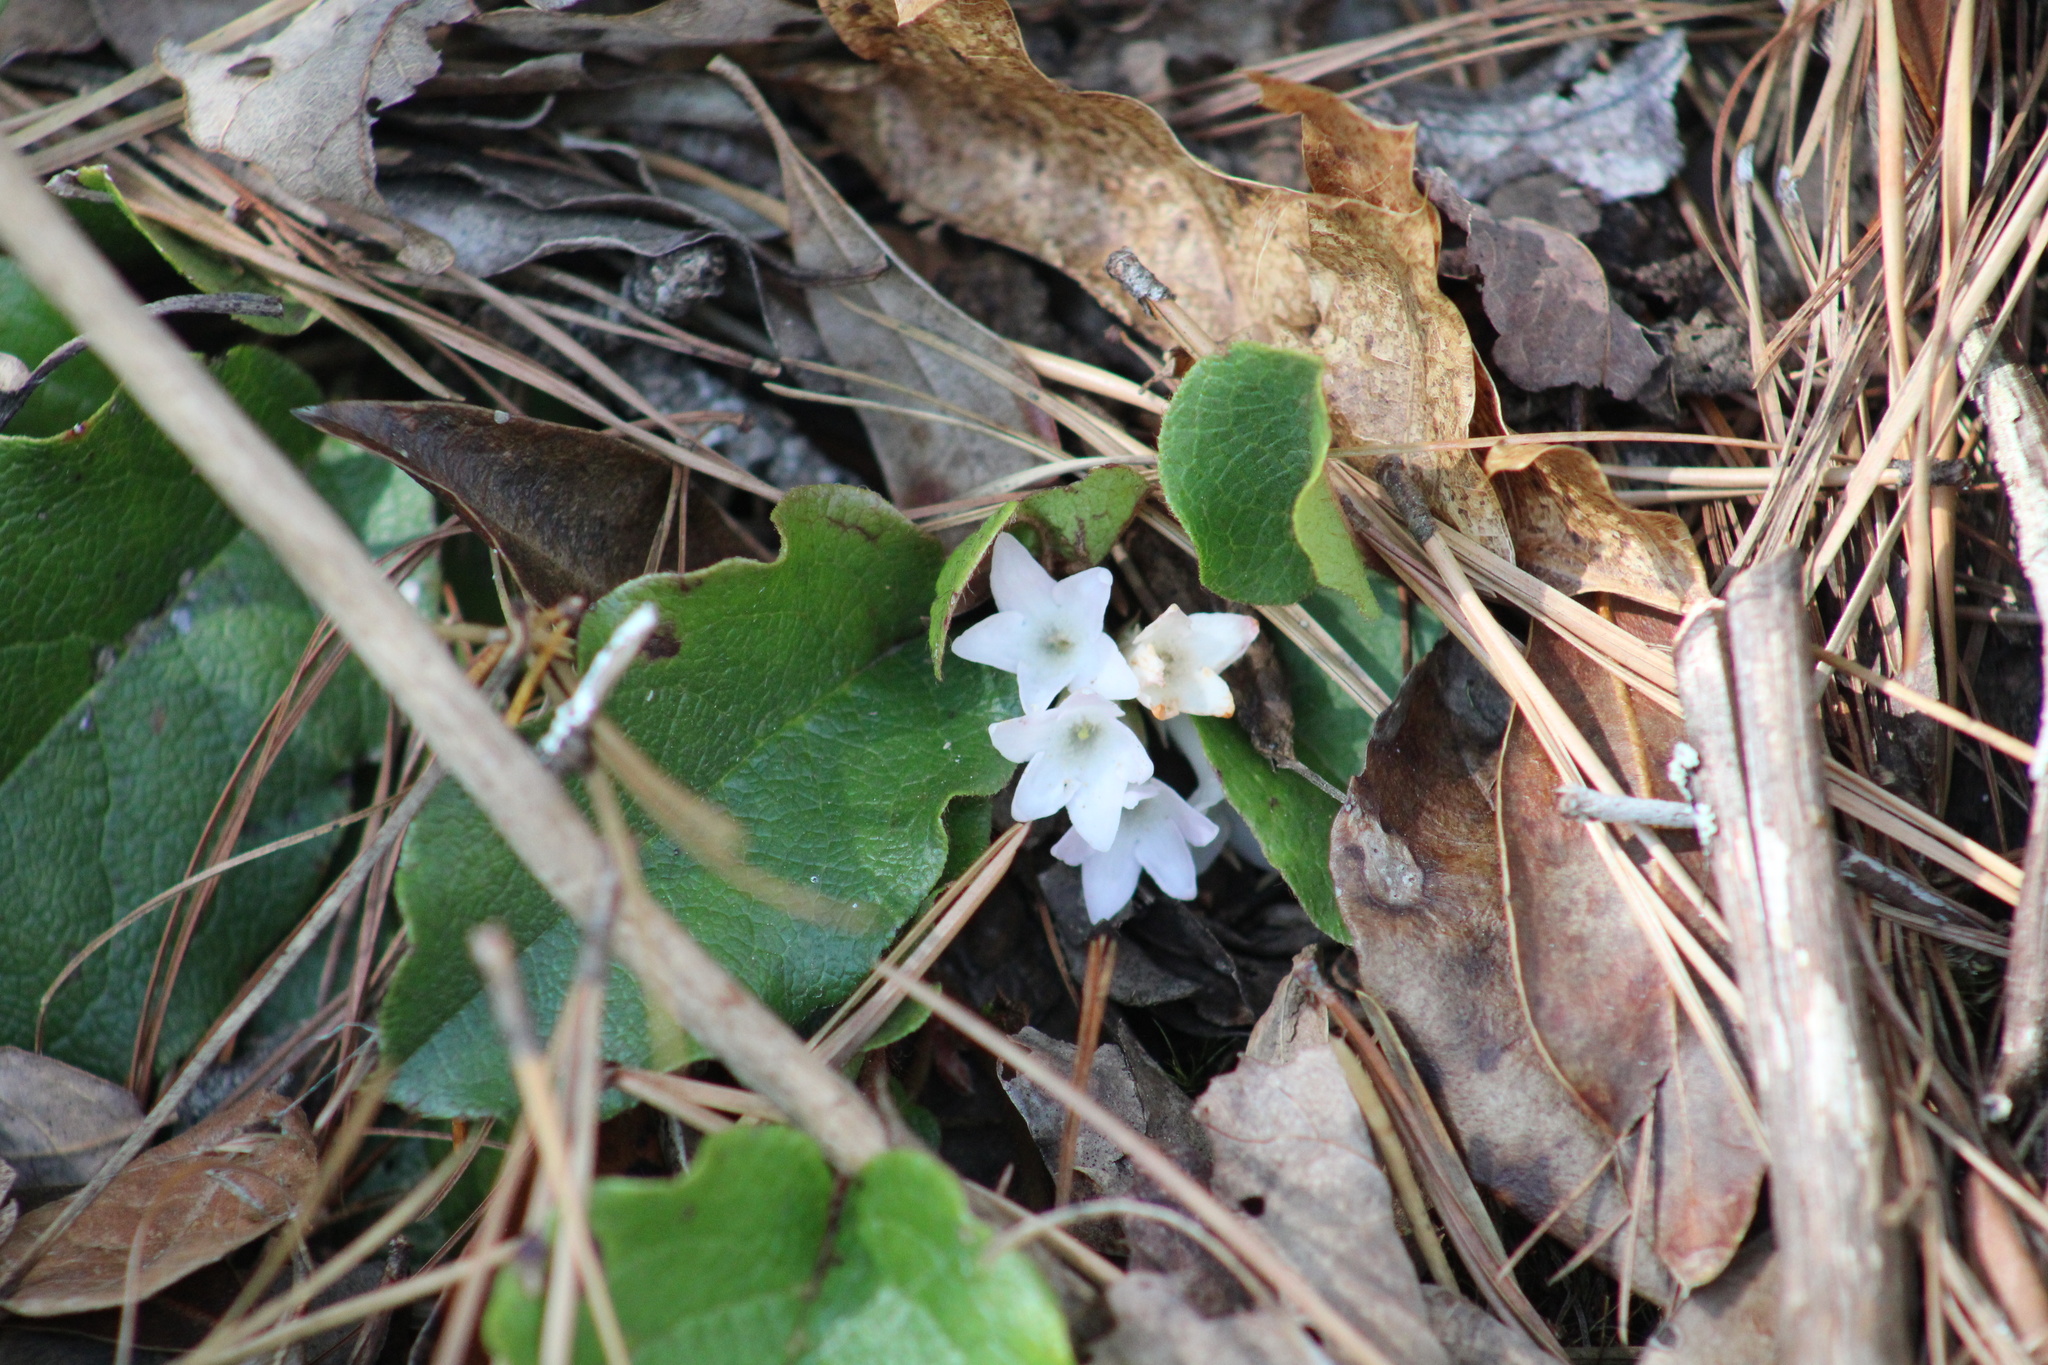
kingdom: Plantae
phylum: Tracheophyta
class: Magnoliopsida
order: Ericales
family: Ericaceae
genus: Epigaea
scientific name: Epigaea repens
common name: Gravelroot
